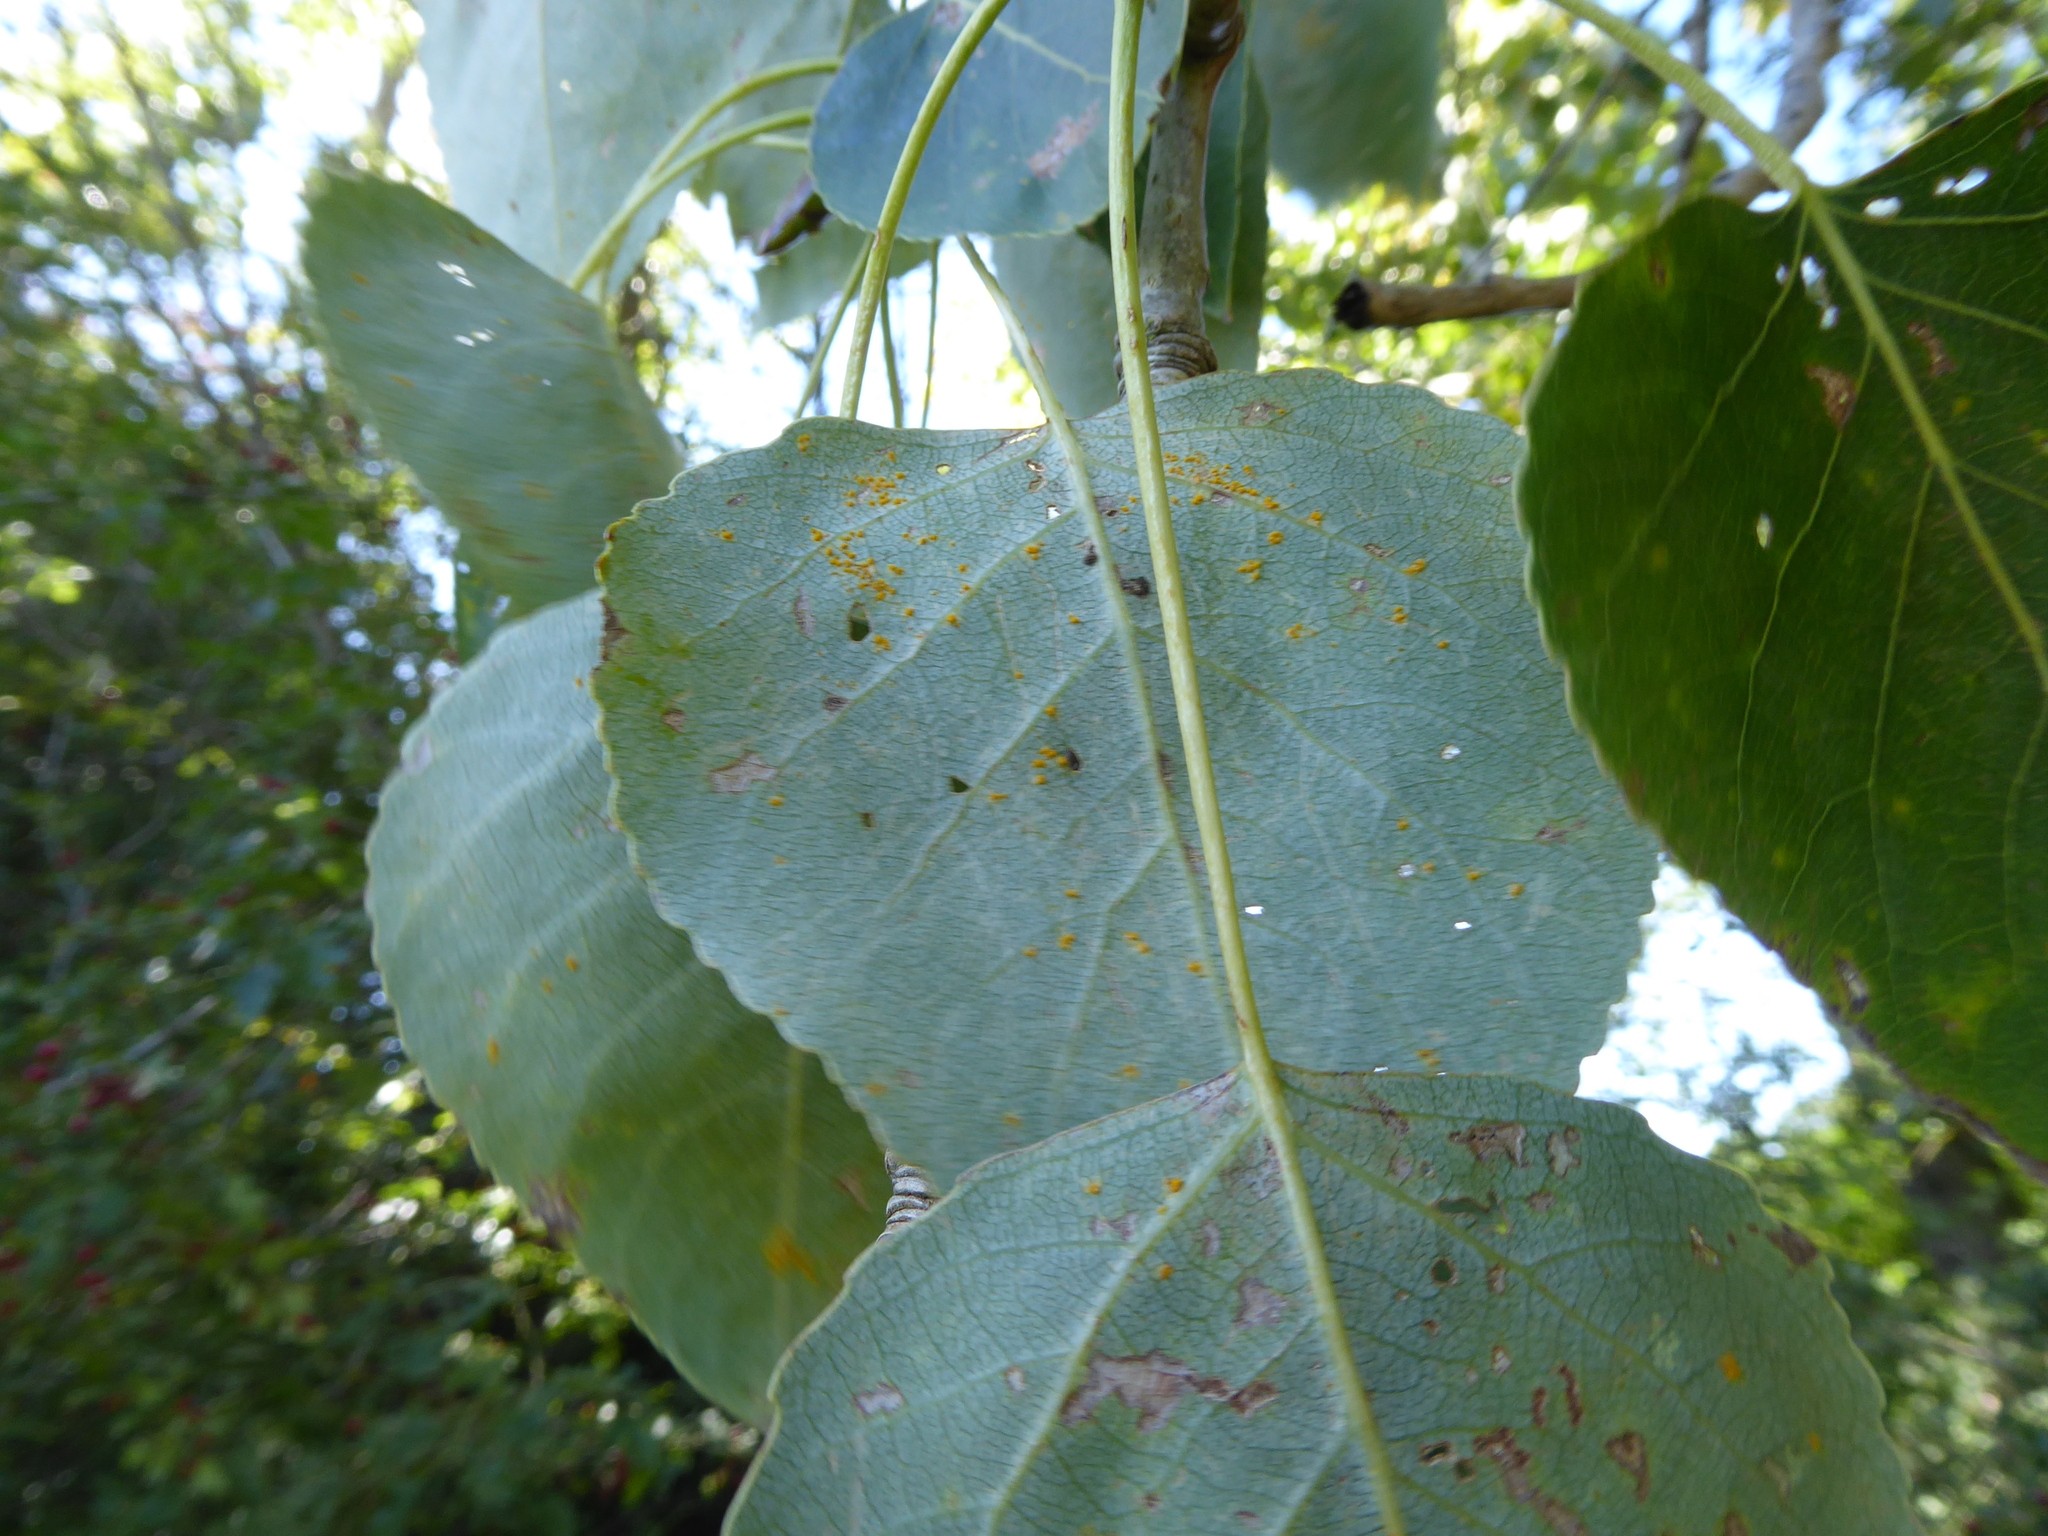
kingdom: Fungi
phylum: Basidiomycota
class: Pucciniomycetes
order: Pucciniales
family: Melampsoraceae
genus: Melampsora
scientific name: Melampsora
